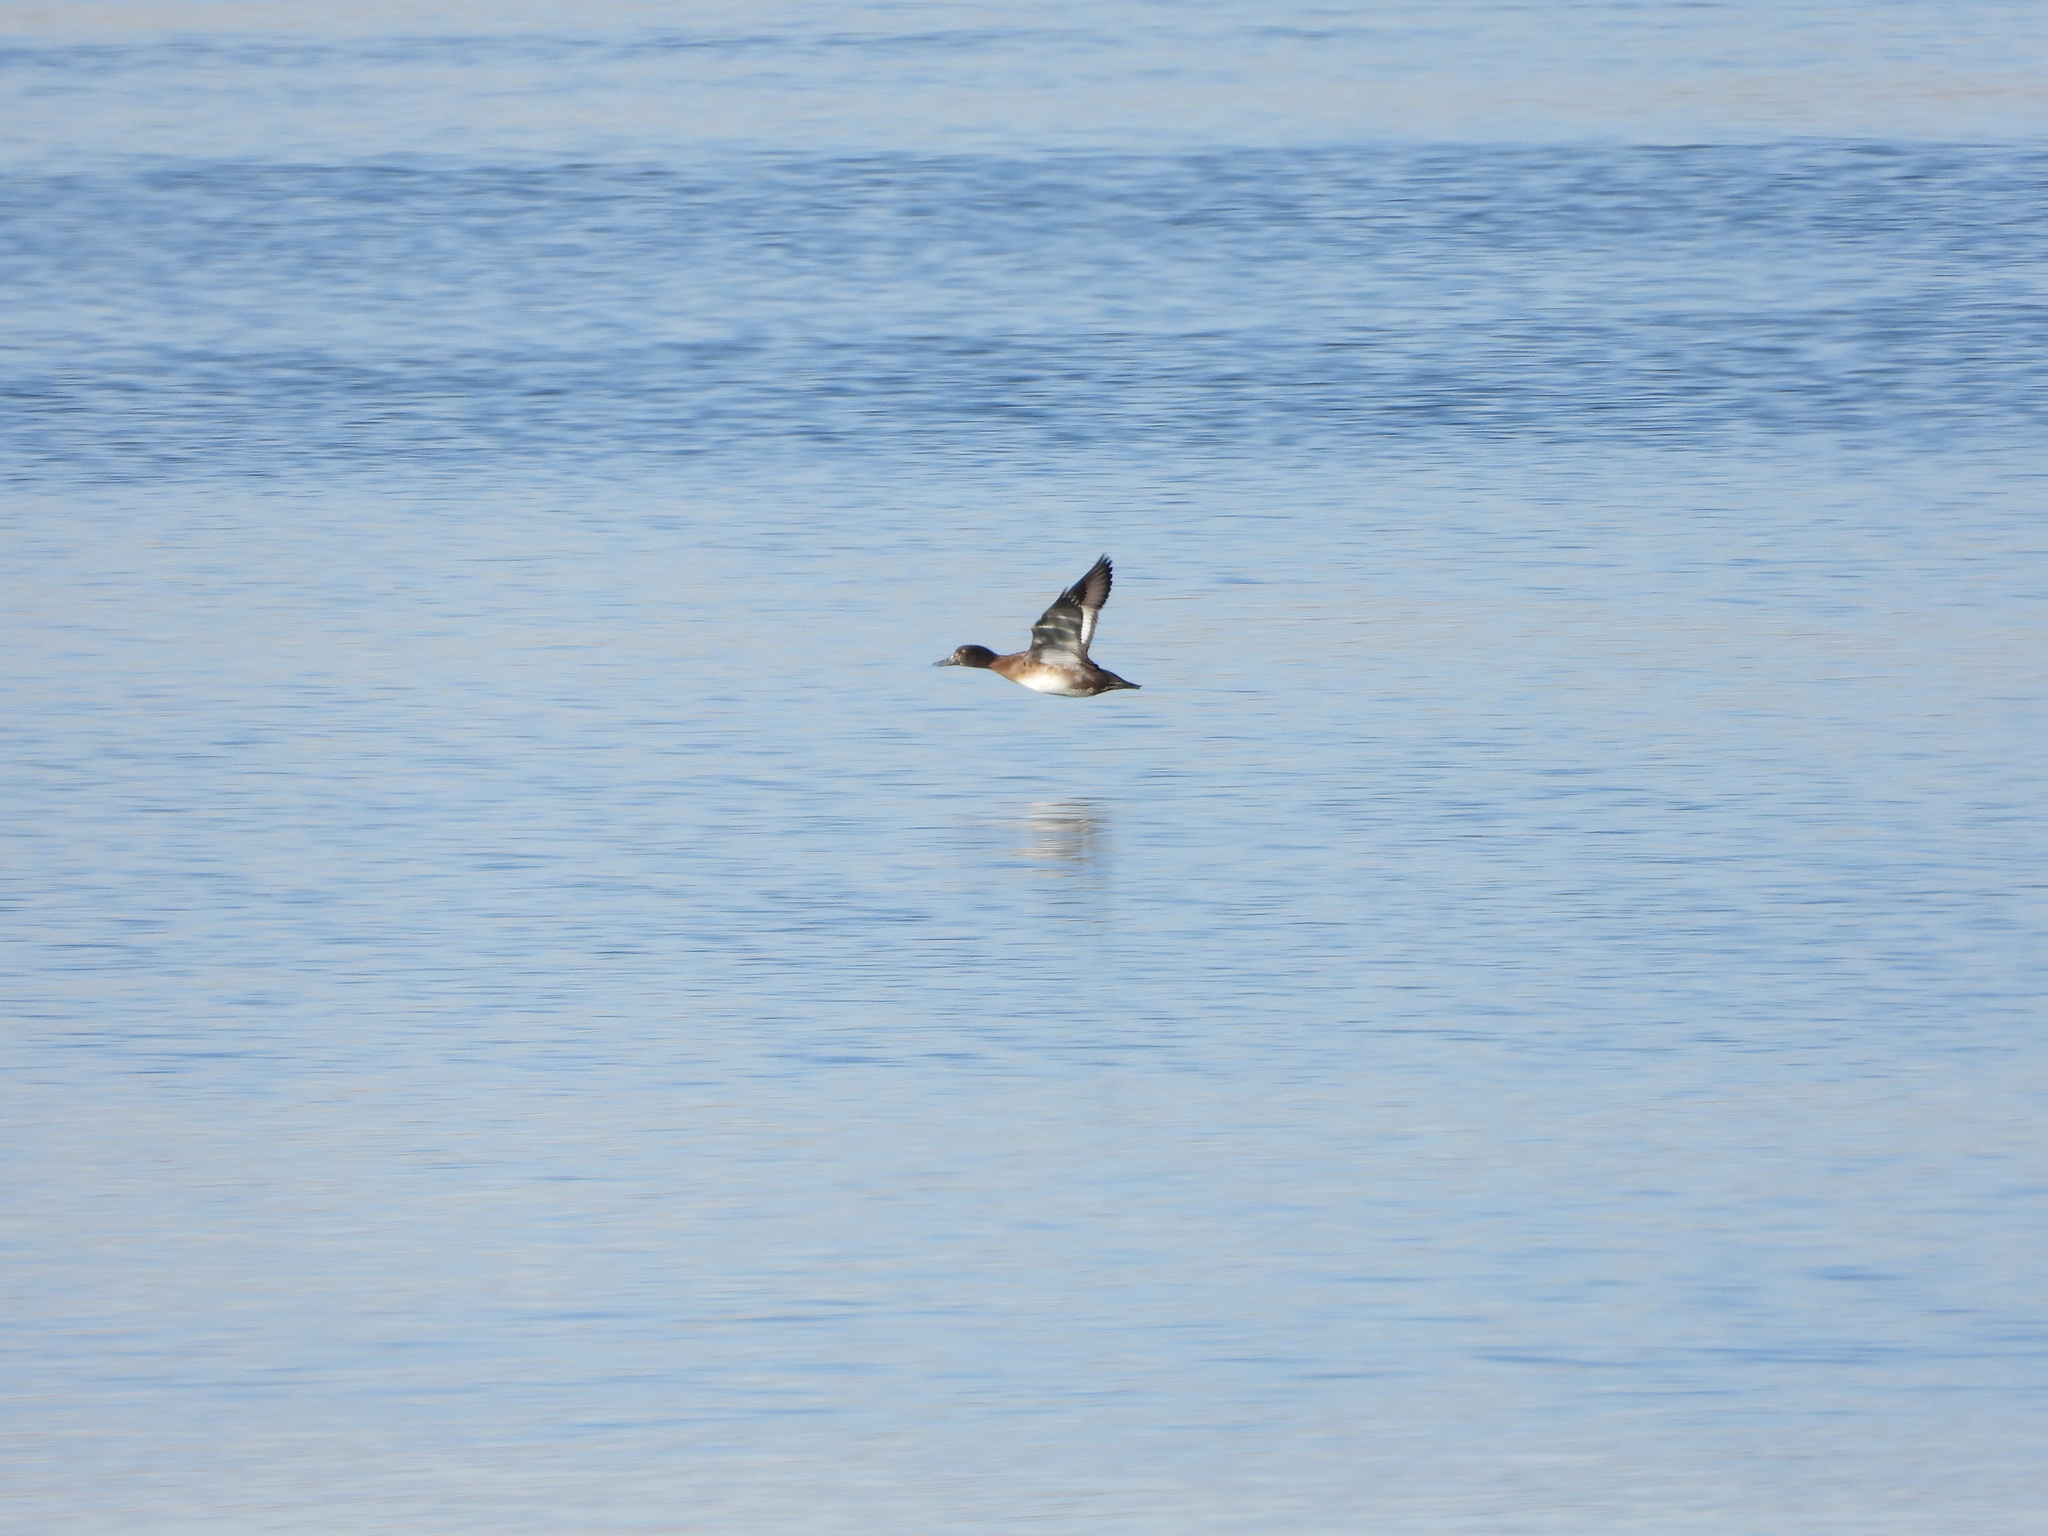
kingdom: Animalia
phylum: Chordata
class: Aves
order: Anseriformes
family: Anatidae
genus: Aythya
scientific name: Aythya affinis
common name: Lesser scaup
